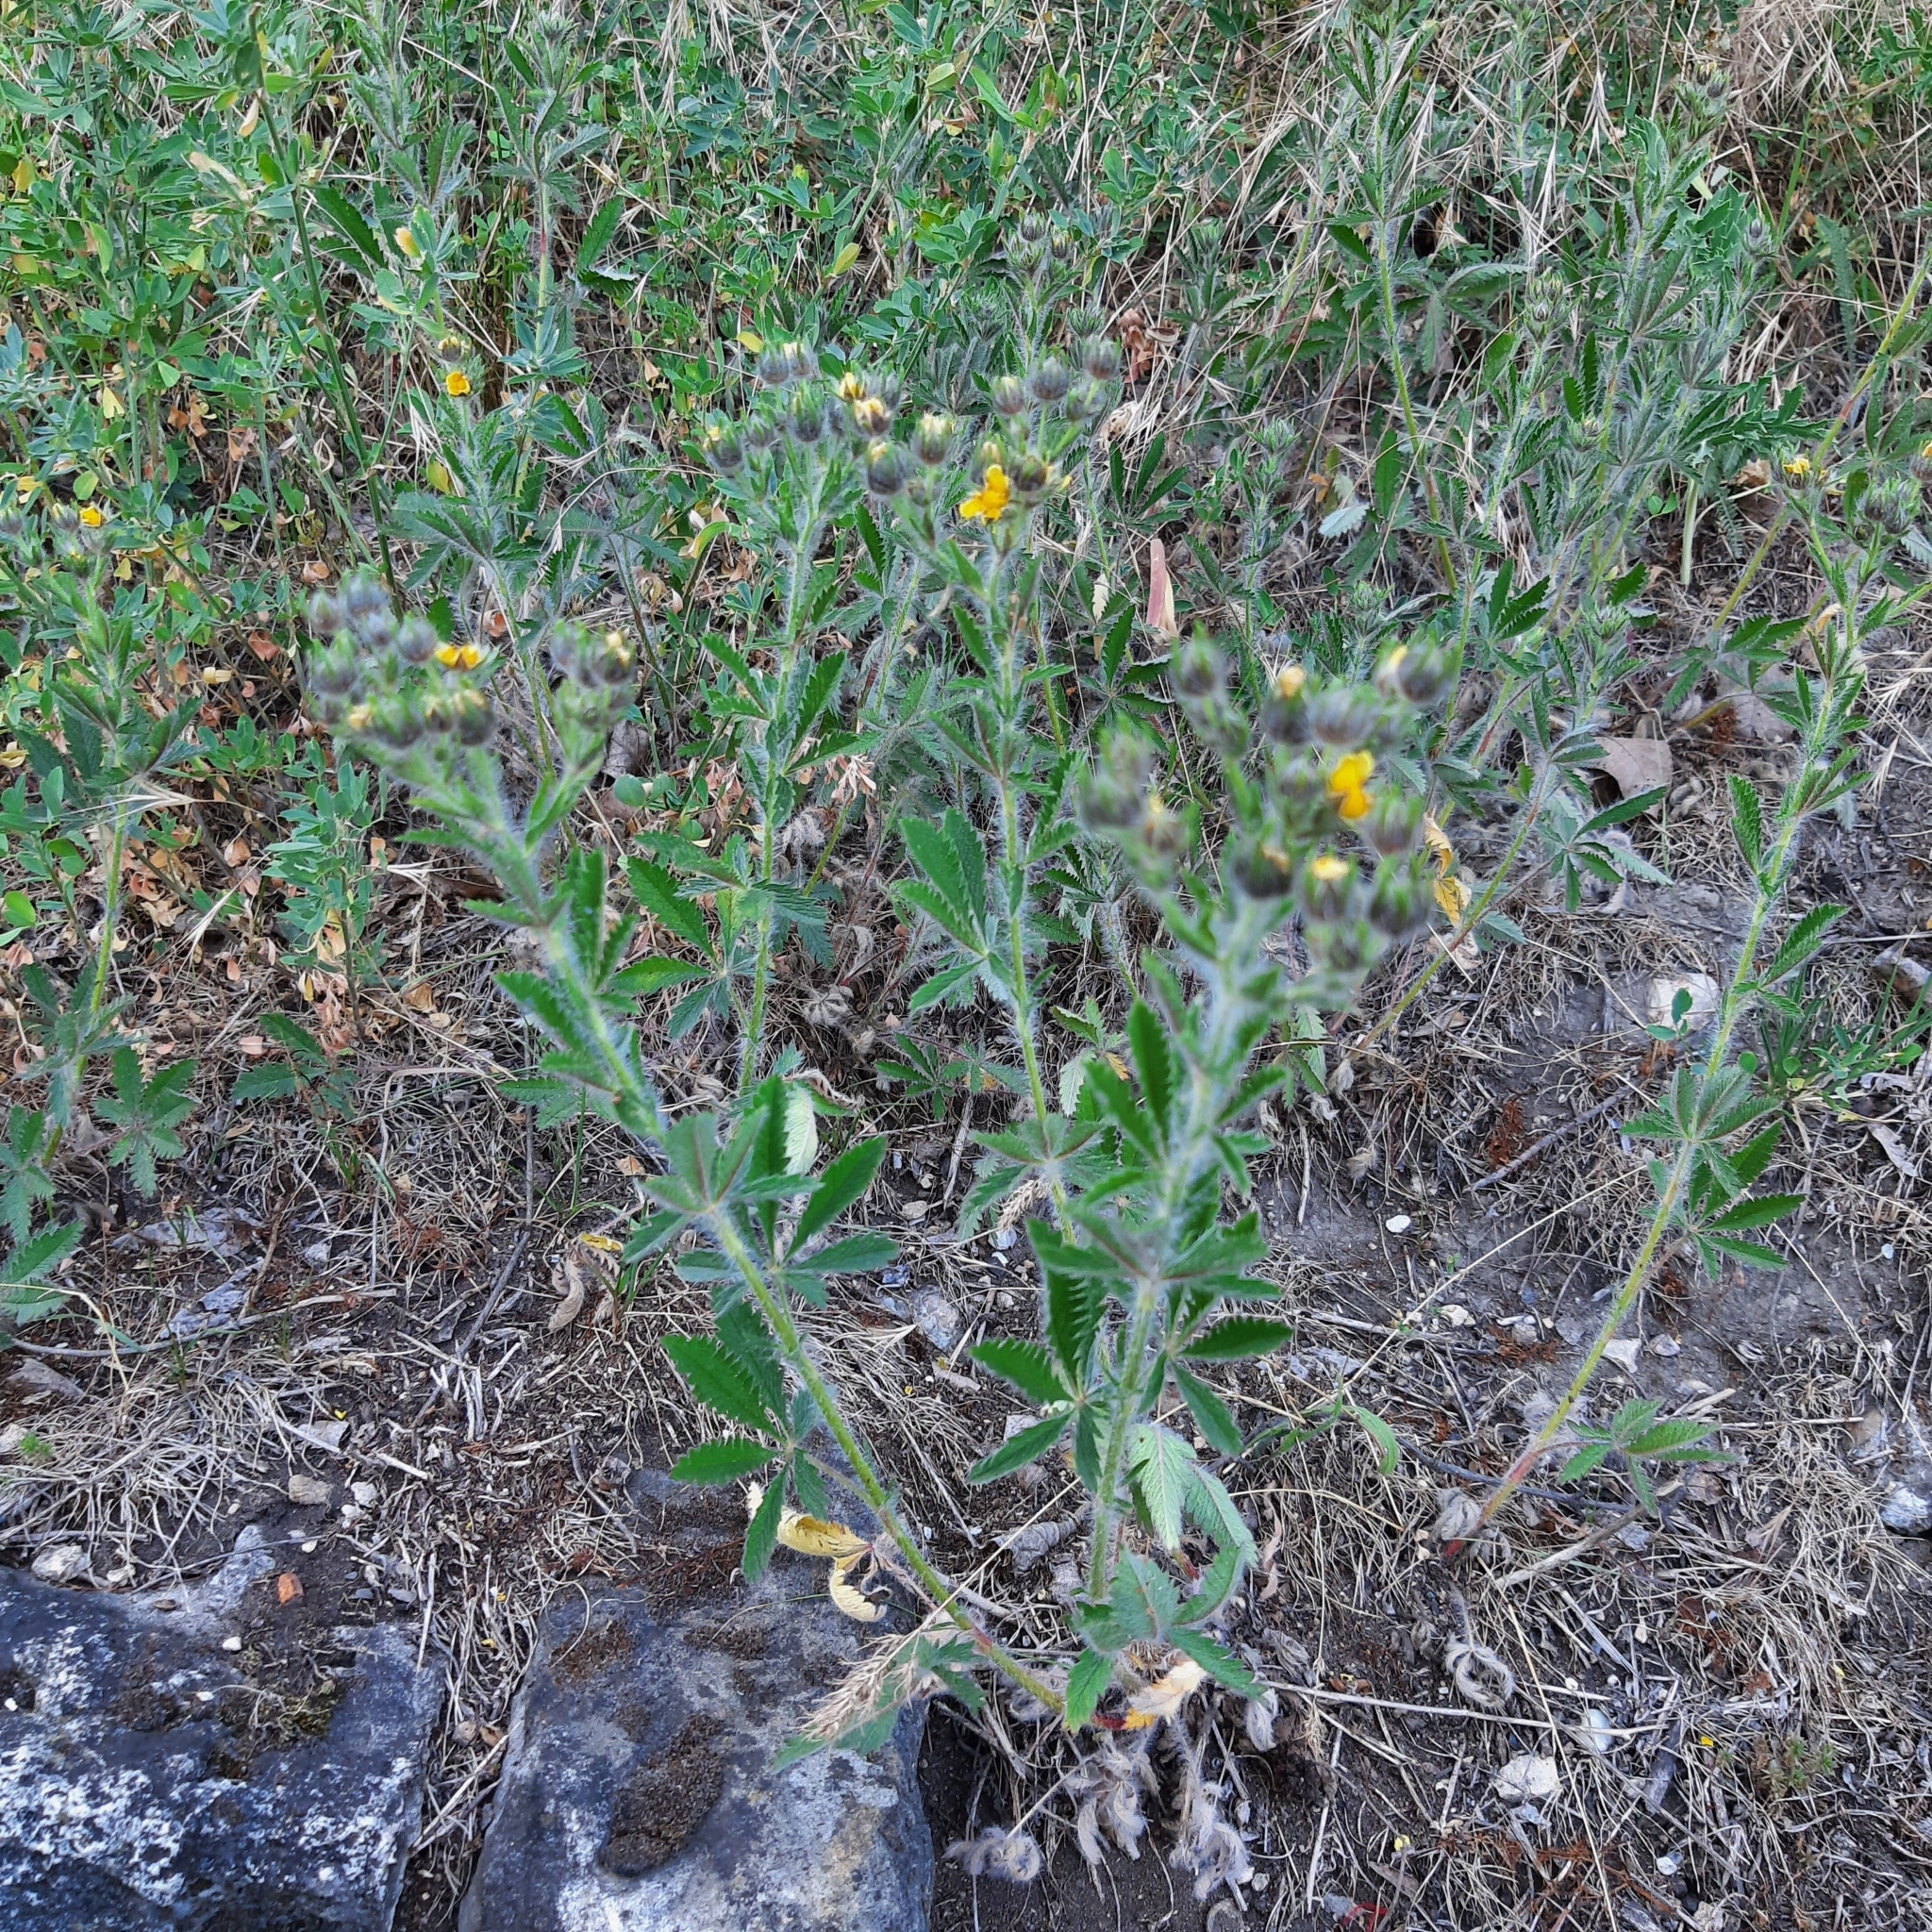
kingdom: Plantae
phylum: Tracheophyta
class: Magnoliopsida
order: Rosales
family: Rosaceae
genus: Potentilla
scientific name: Potentilla recta
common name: Sulphur cinquefoil
